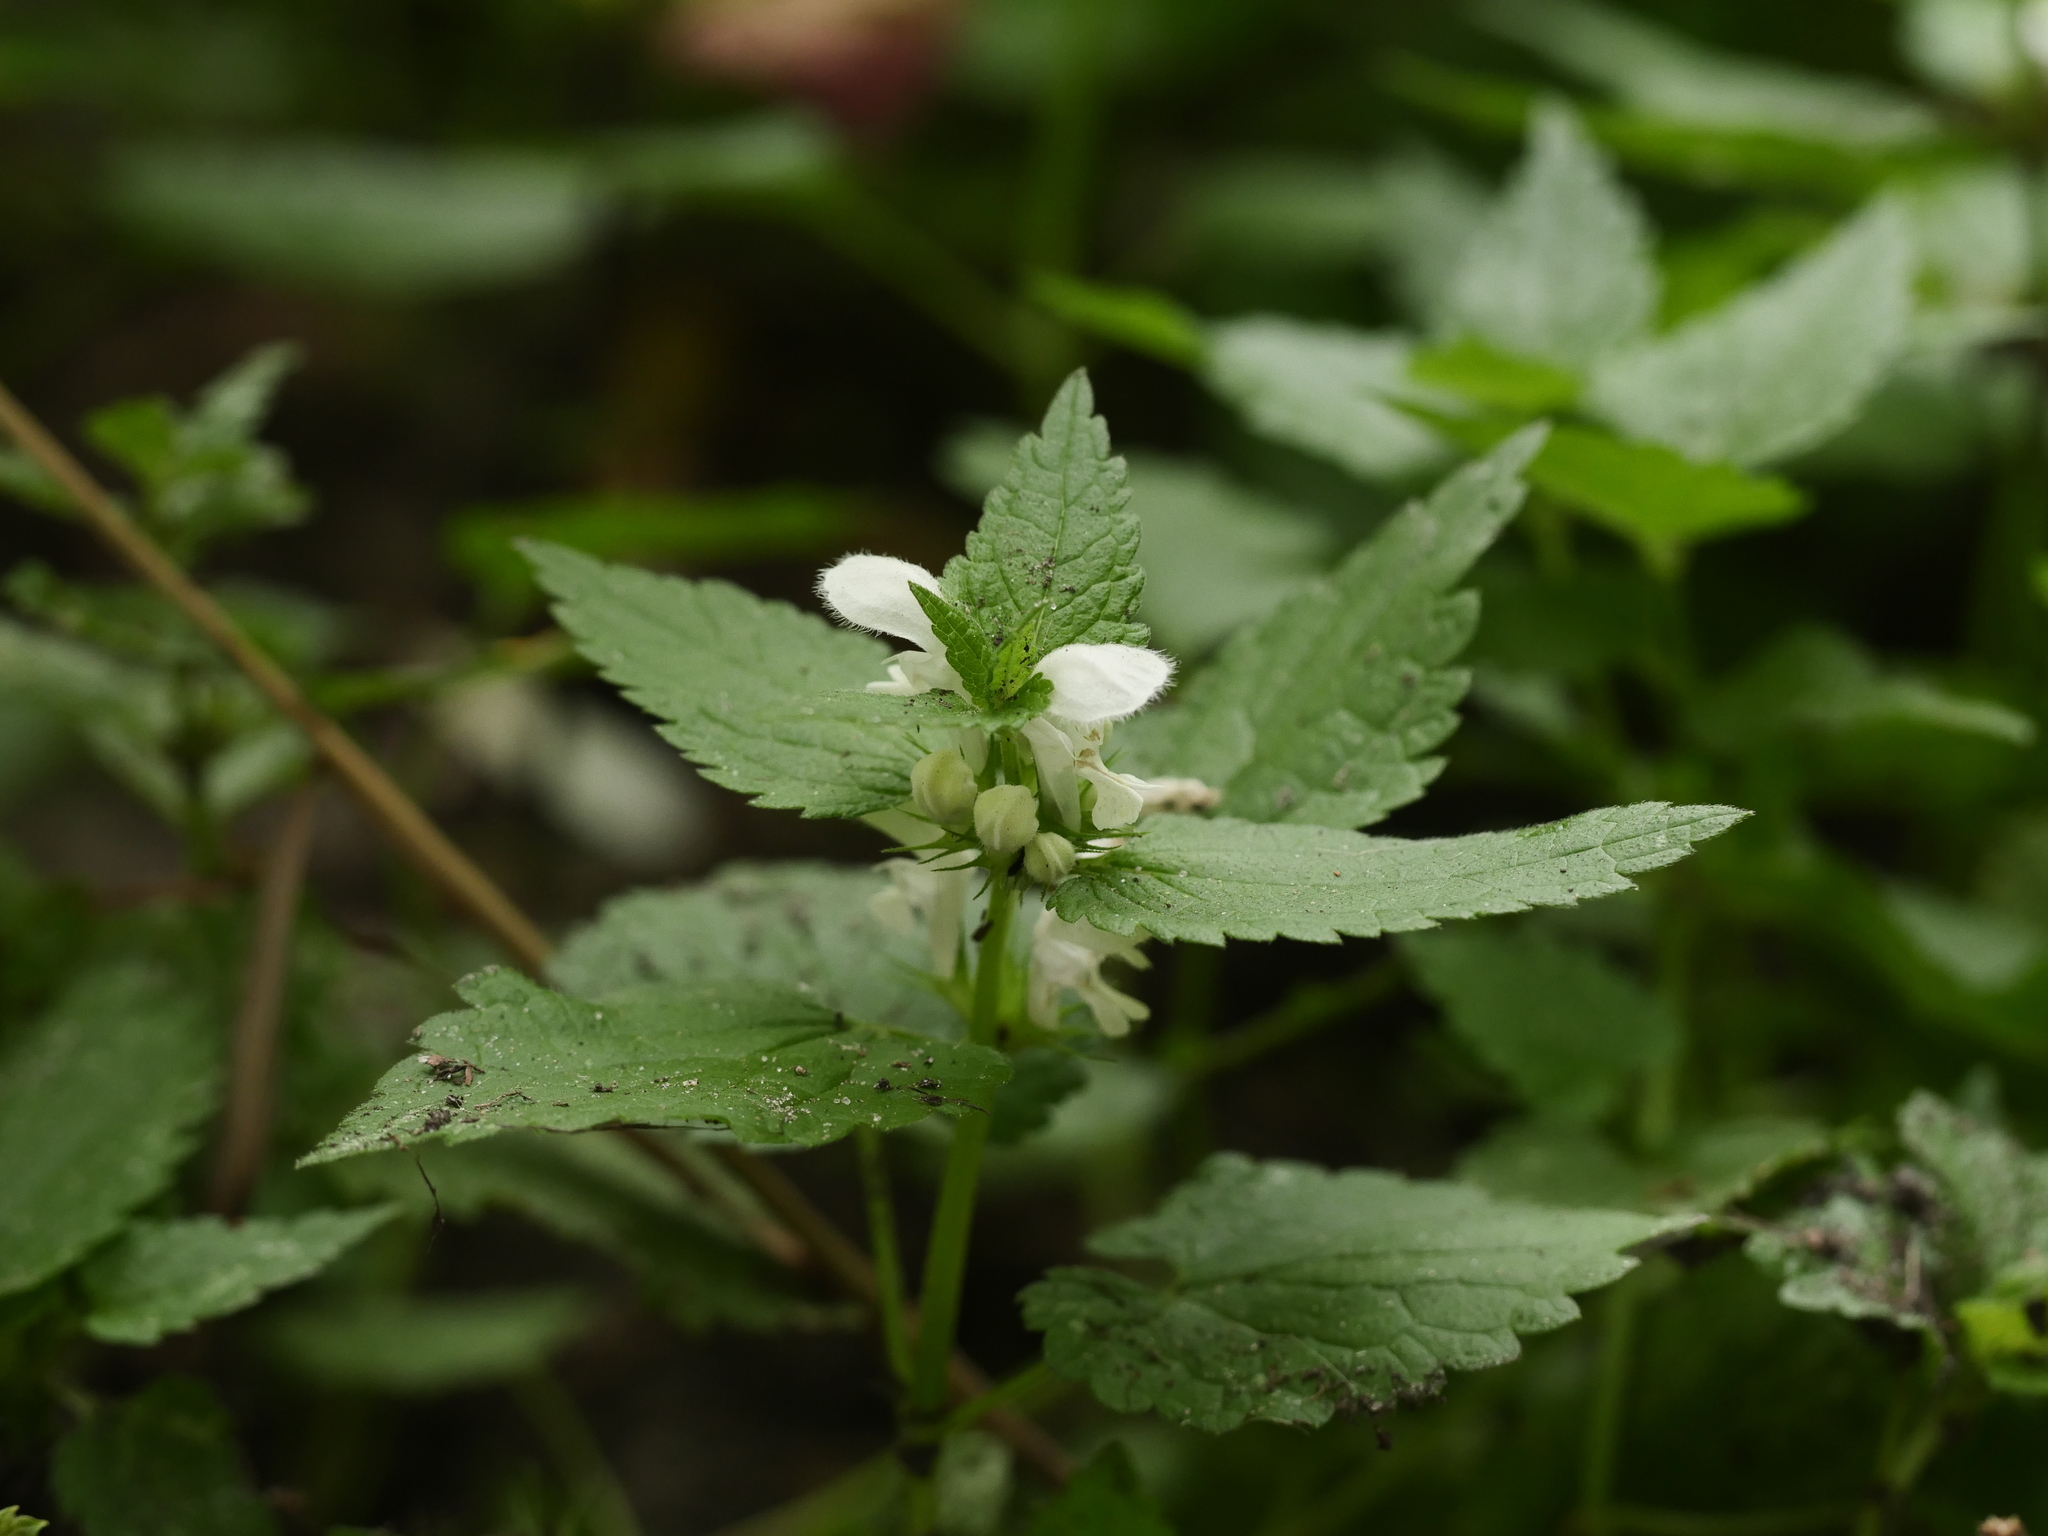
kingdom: Plantae
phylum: Tracheophyta
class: Magnoliopsida
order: Lamiales
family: Lamiaceae
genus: Lamium
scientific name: Lamium album
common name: White dead-nettle
